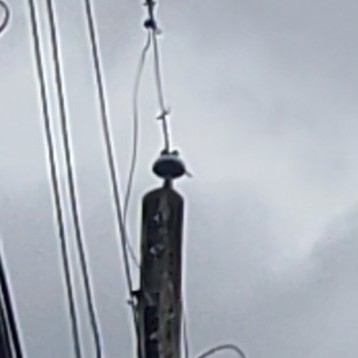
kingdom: Animalia
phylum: Chordata
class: Aves
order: Piciformes
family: Picidae
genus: Colaptes
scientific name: Colaptes auratus
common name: Northern flicker
